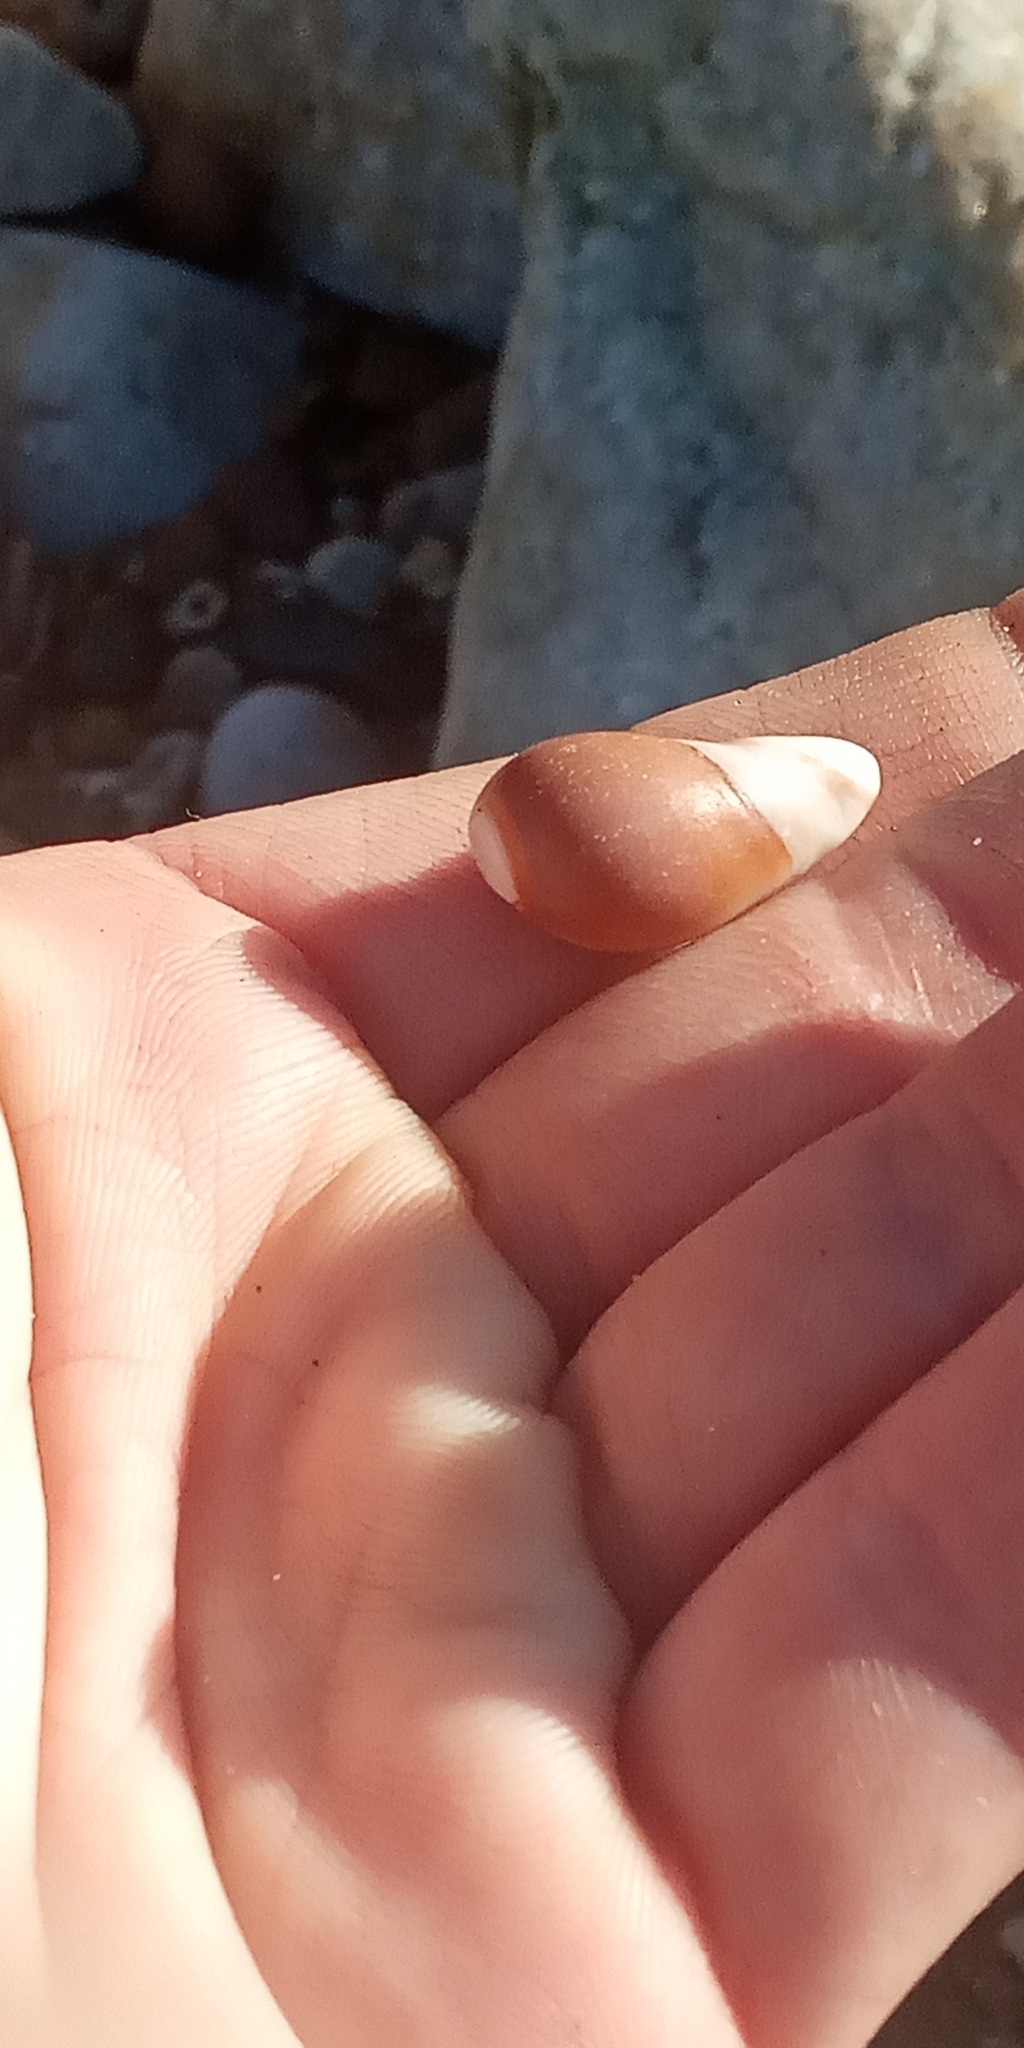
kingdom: Animalia
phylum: Mollusca
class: Gastropoda
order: Neogastropoda
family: Olividae
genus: Olivancillaria
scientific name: Olivancillaria deshayesiana
